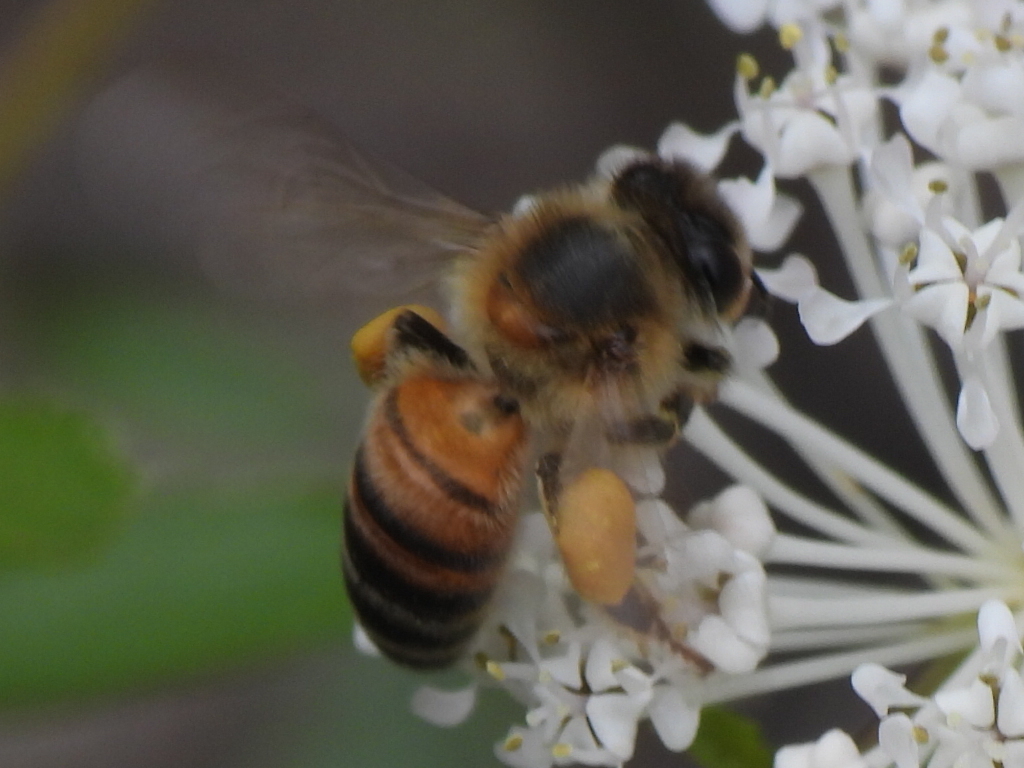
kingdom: Animalia
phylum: Arthropoda
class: Insecta
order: Hymenoptera
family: Apidae
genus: Apis
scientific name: Apis mellifera
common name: Honey bee
